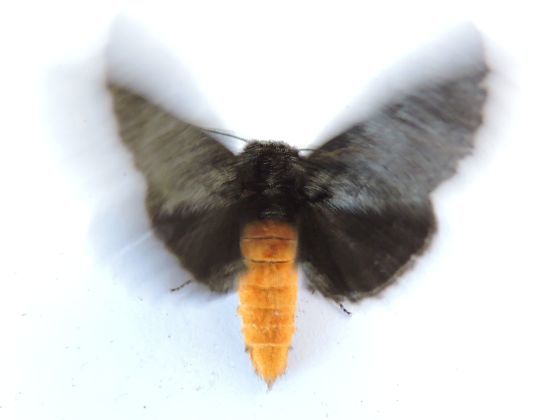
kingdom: Animalia
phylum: Arthropoda
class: Insecta
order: Lepidoptera
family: Notodontidae
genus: Cargida
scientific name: Cargida pyrrha
